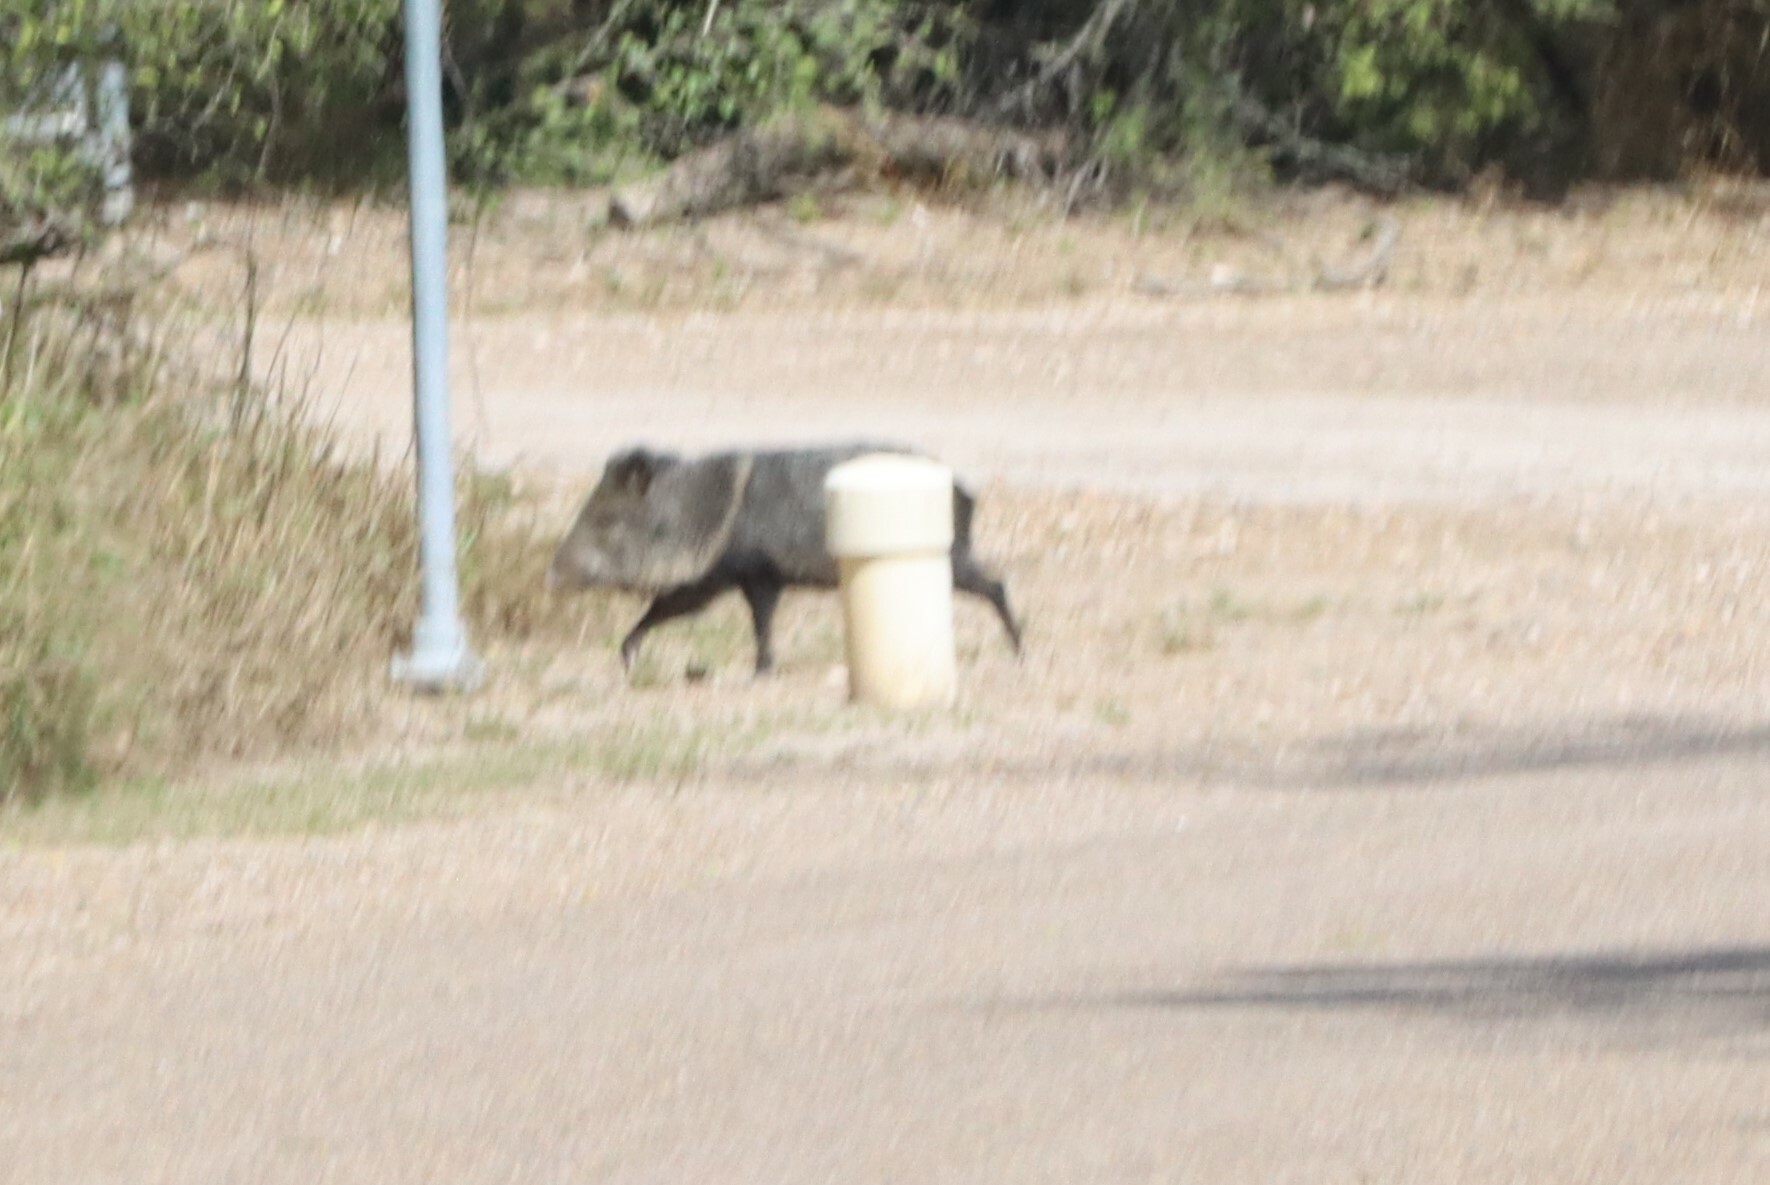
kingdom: Animalia
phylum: Chordata
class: Mammalia
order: Artiodactyla
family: Tayassuidae
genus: Pecari
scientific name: Pecari tajacu
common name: Collared peccary
